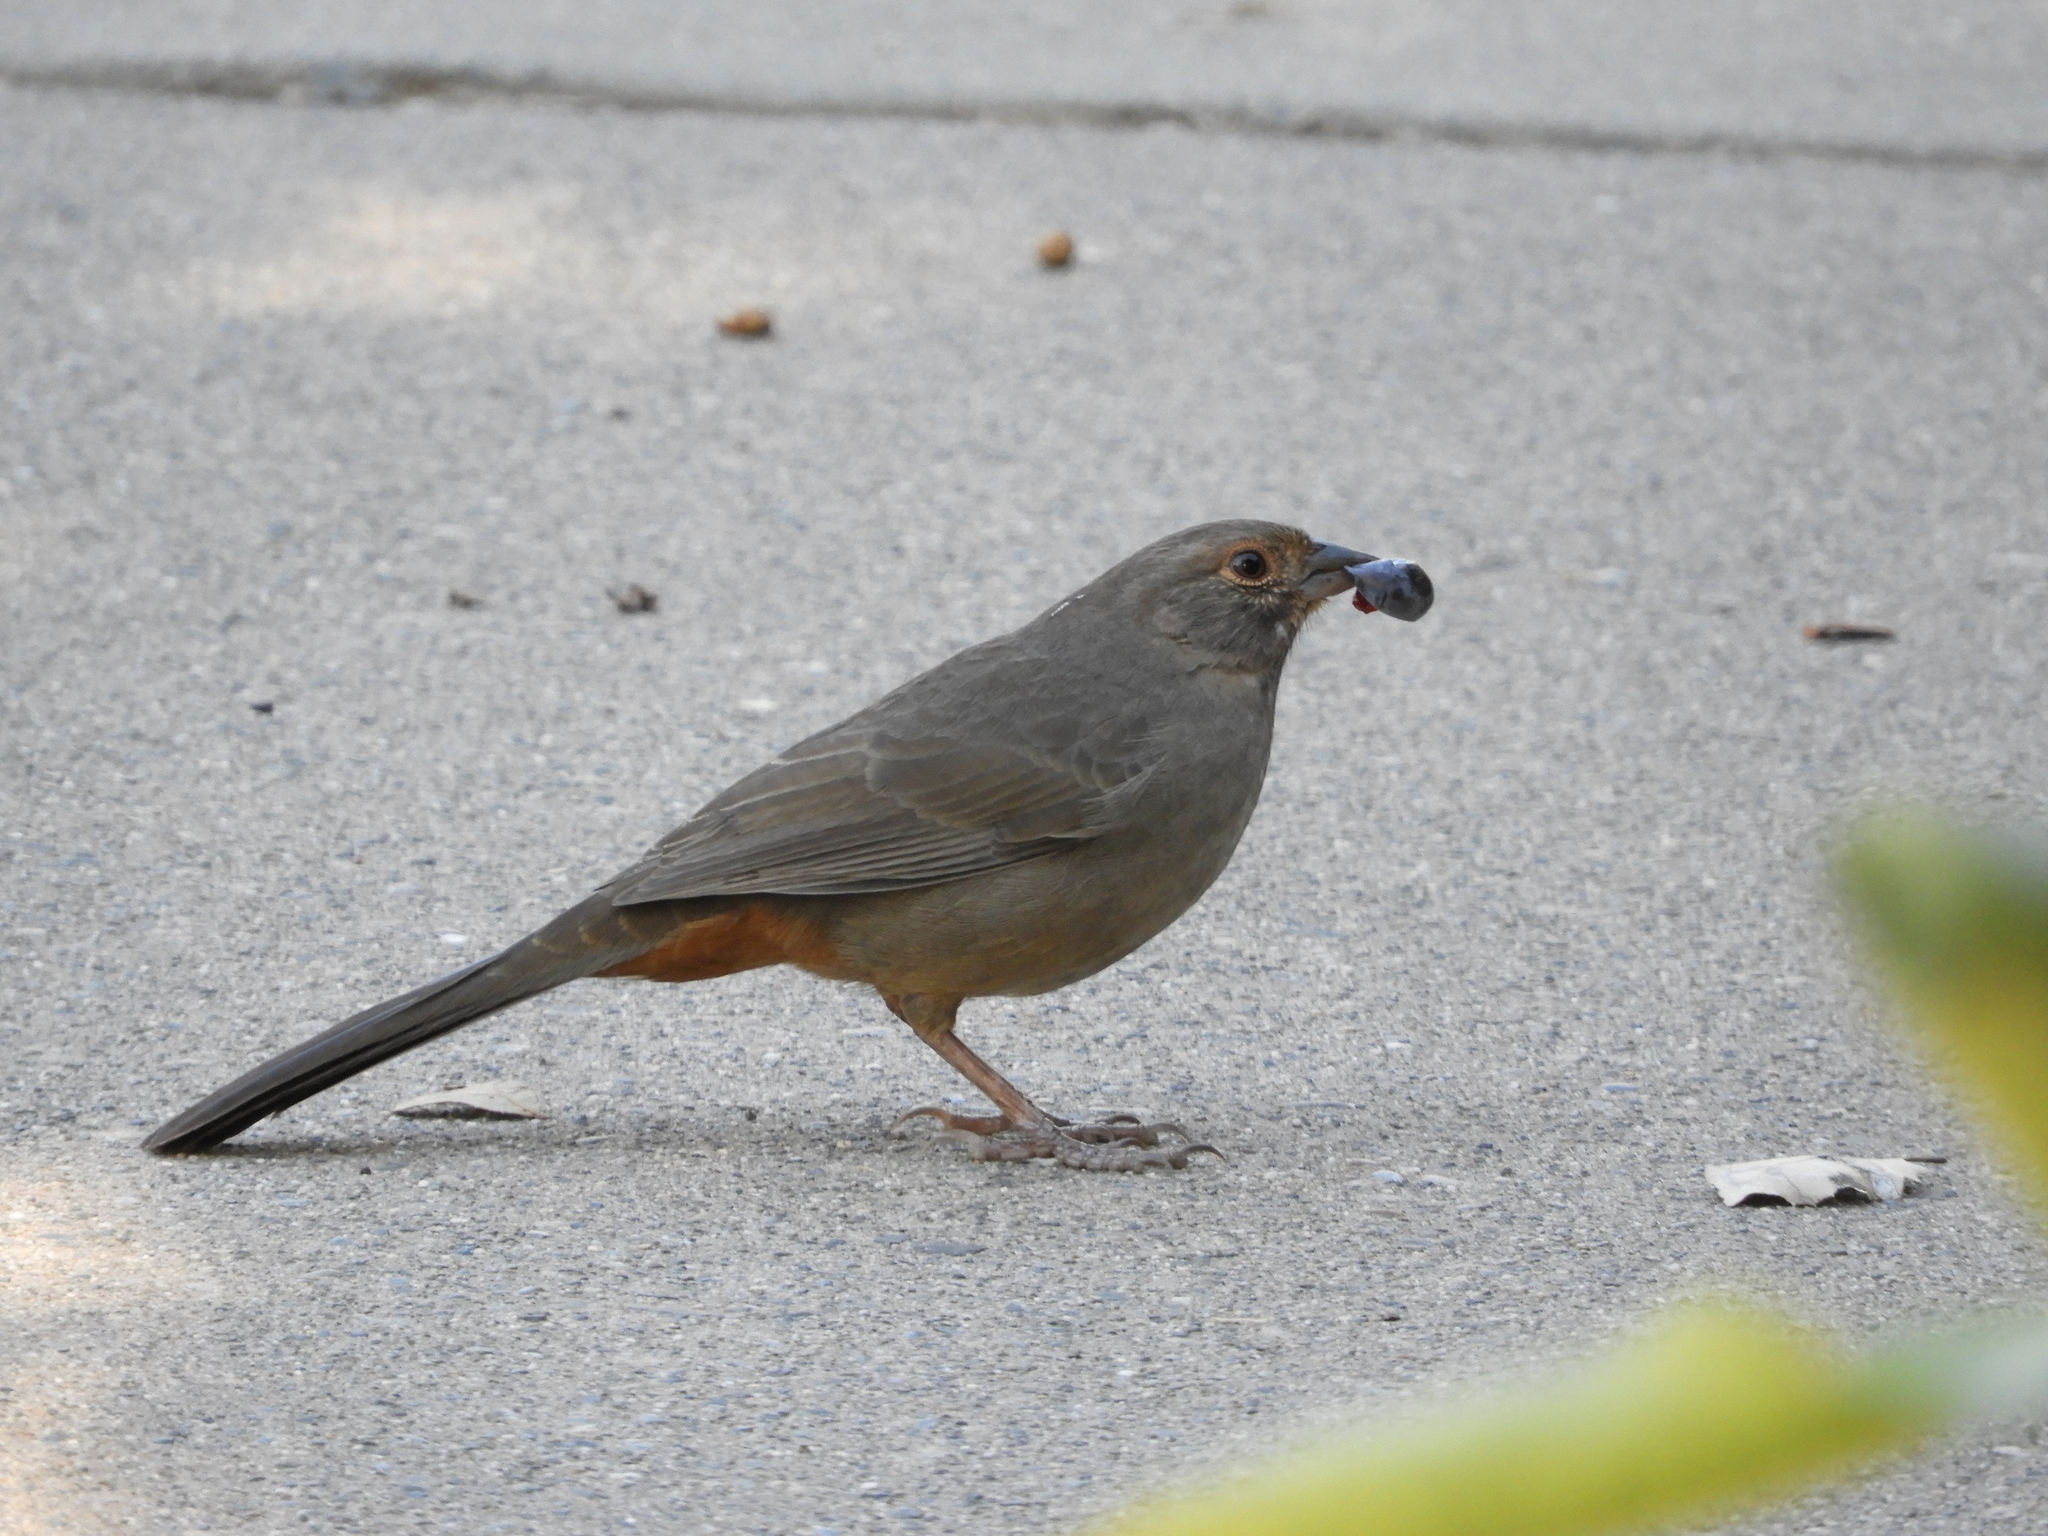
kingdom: Animalia
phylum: Chordata
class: Aves
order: Passeriformes
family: Passerellidae
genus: Melozone
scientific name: Melozone crissalis
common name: California towhee
